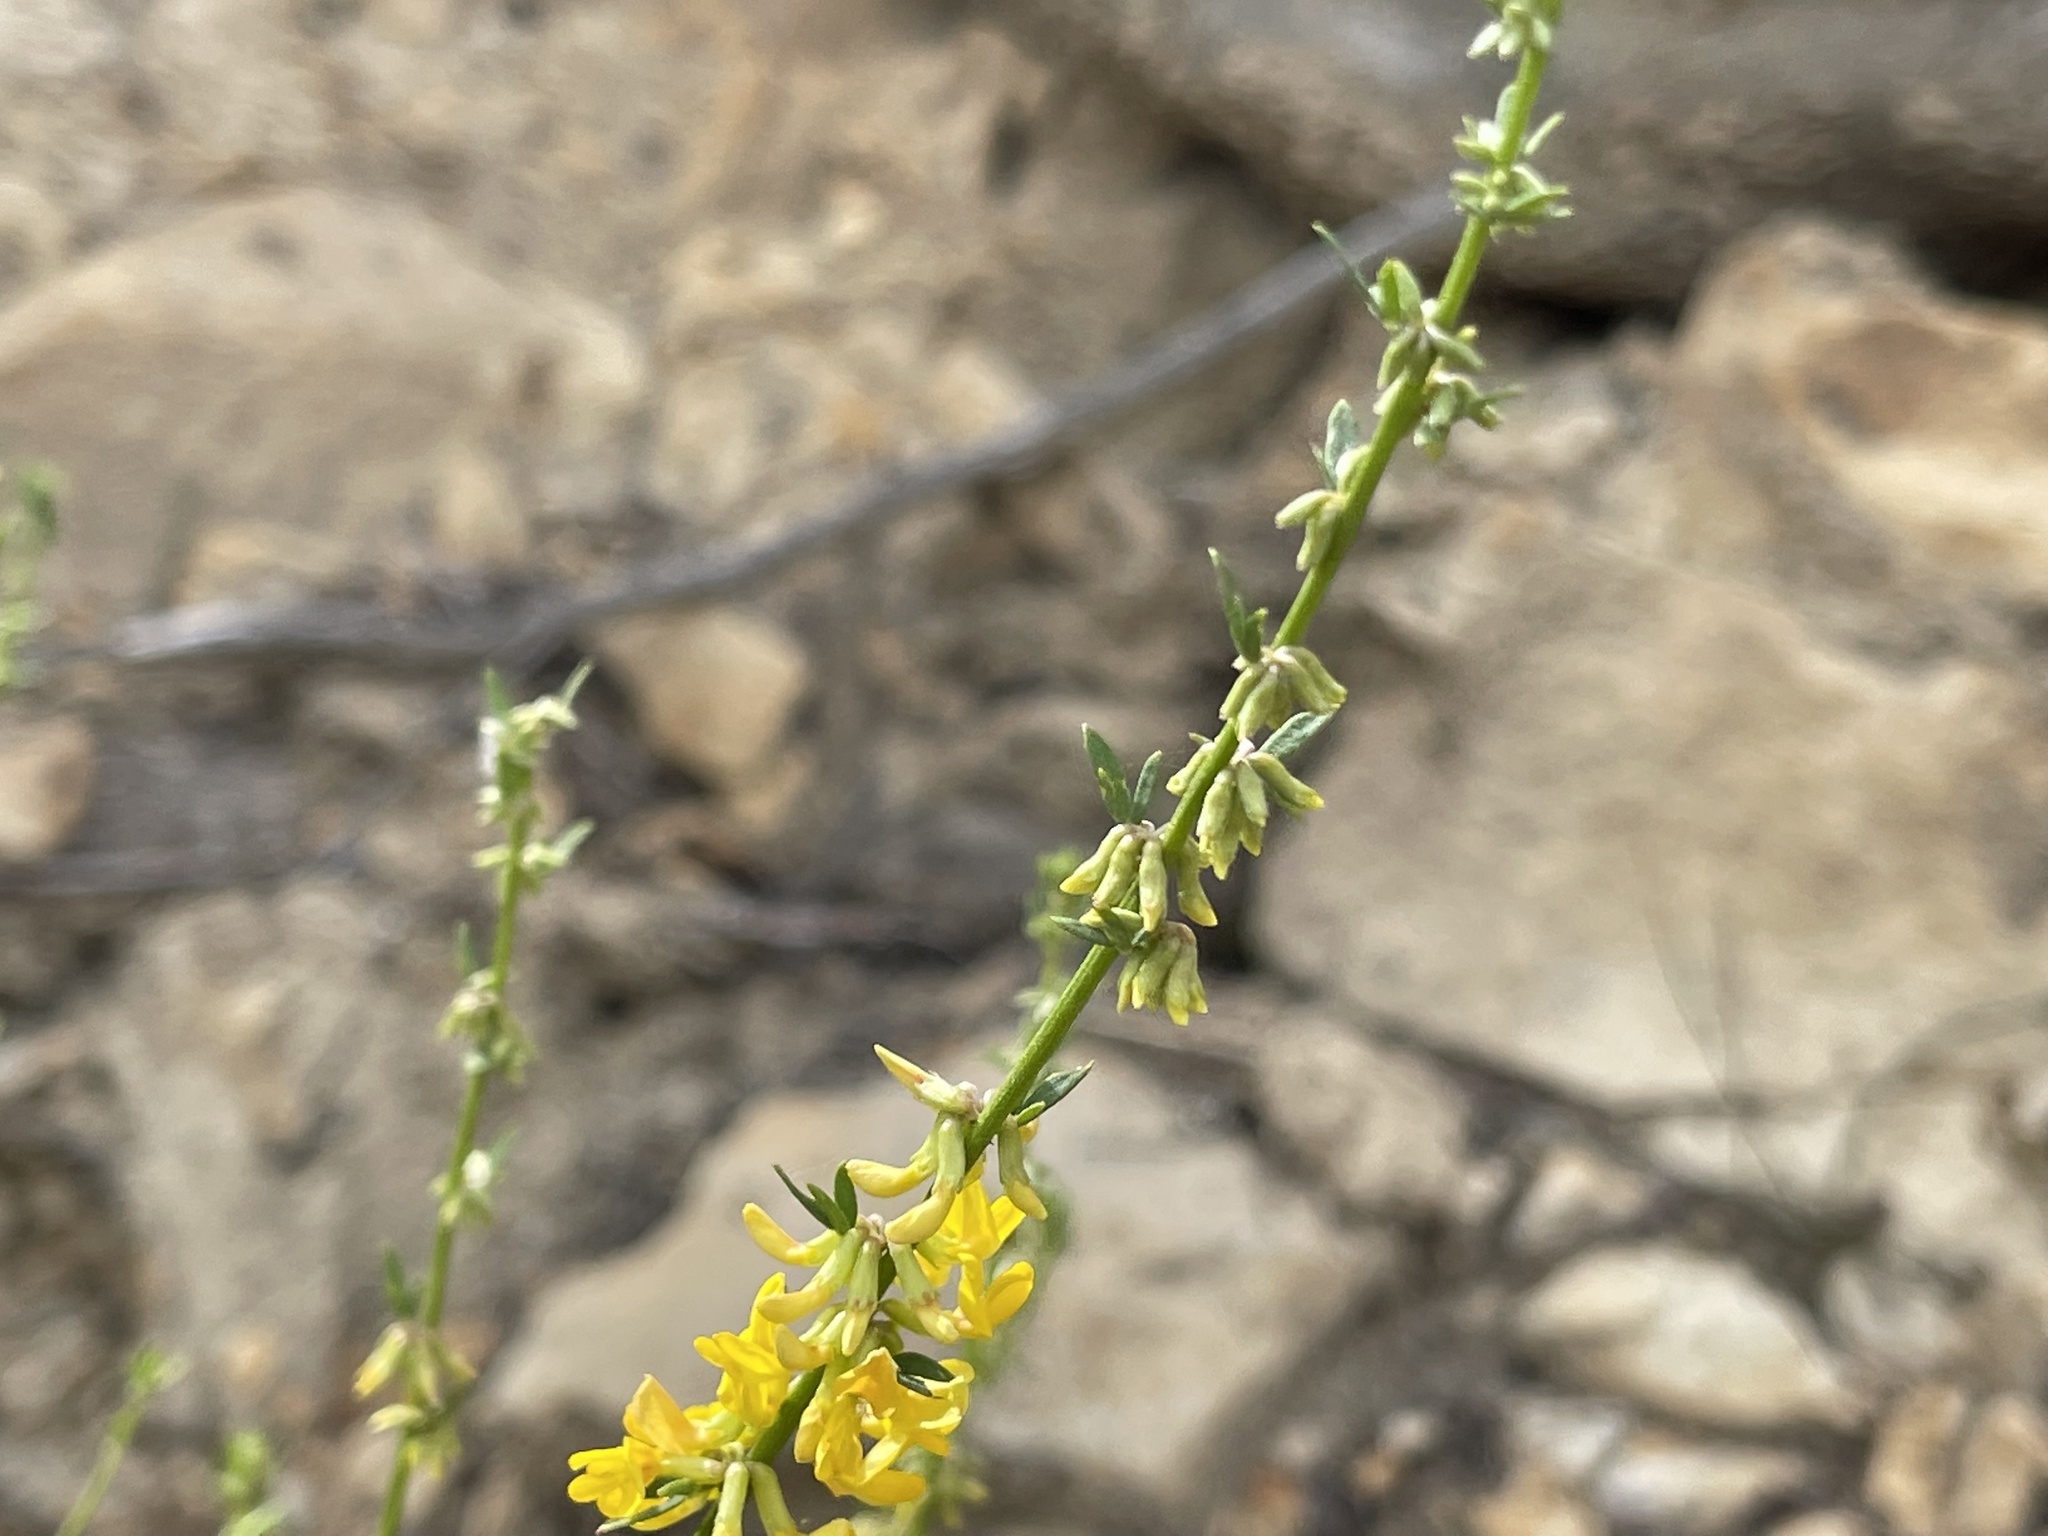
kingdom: Plantae
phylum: Tracheophyta
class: Magnoliopsida
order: Fabales
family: Fabaceae
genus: Acmispon
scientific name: Acmispon glaber
